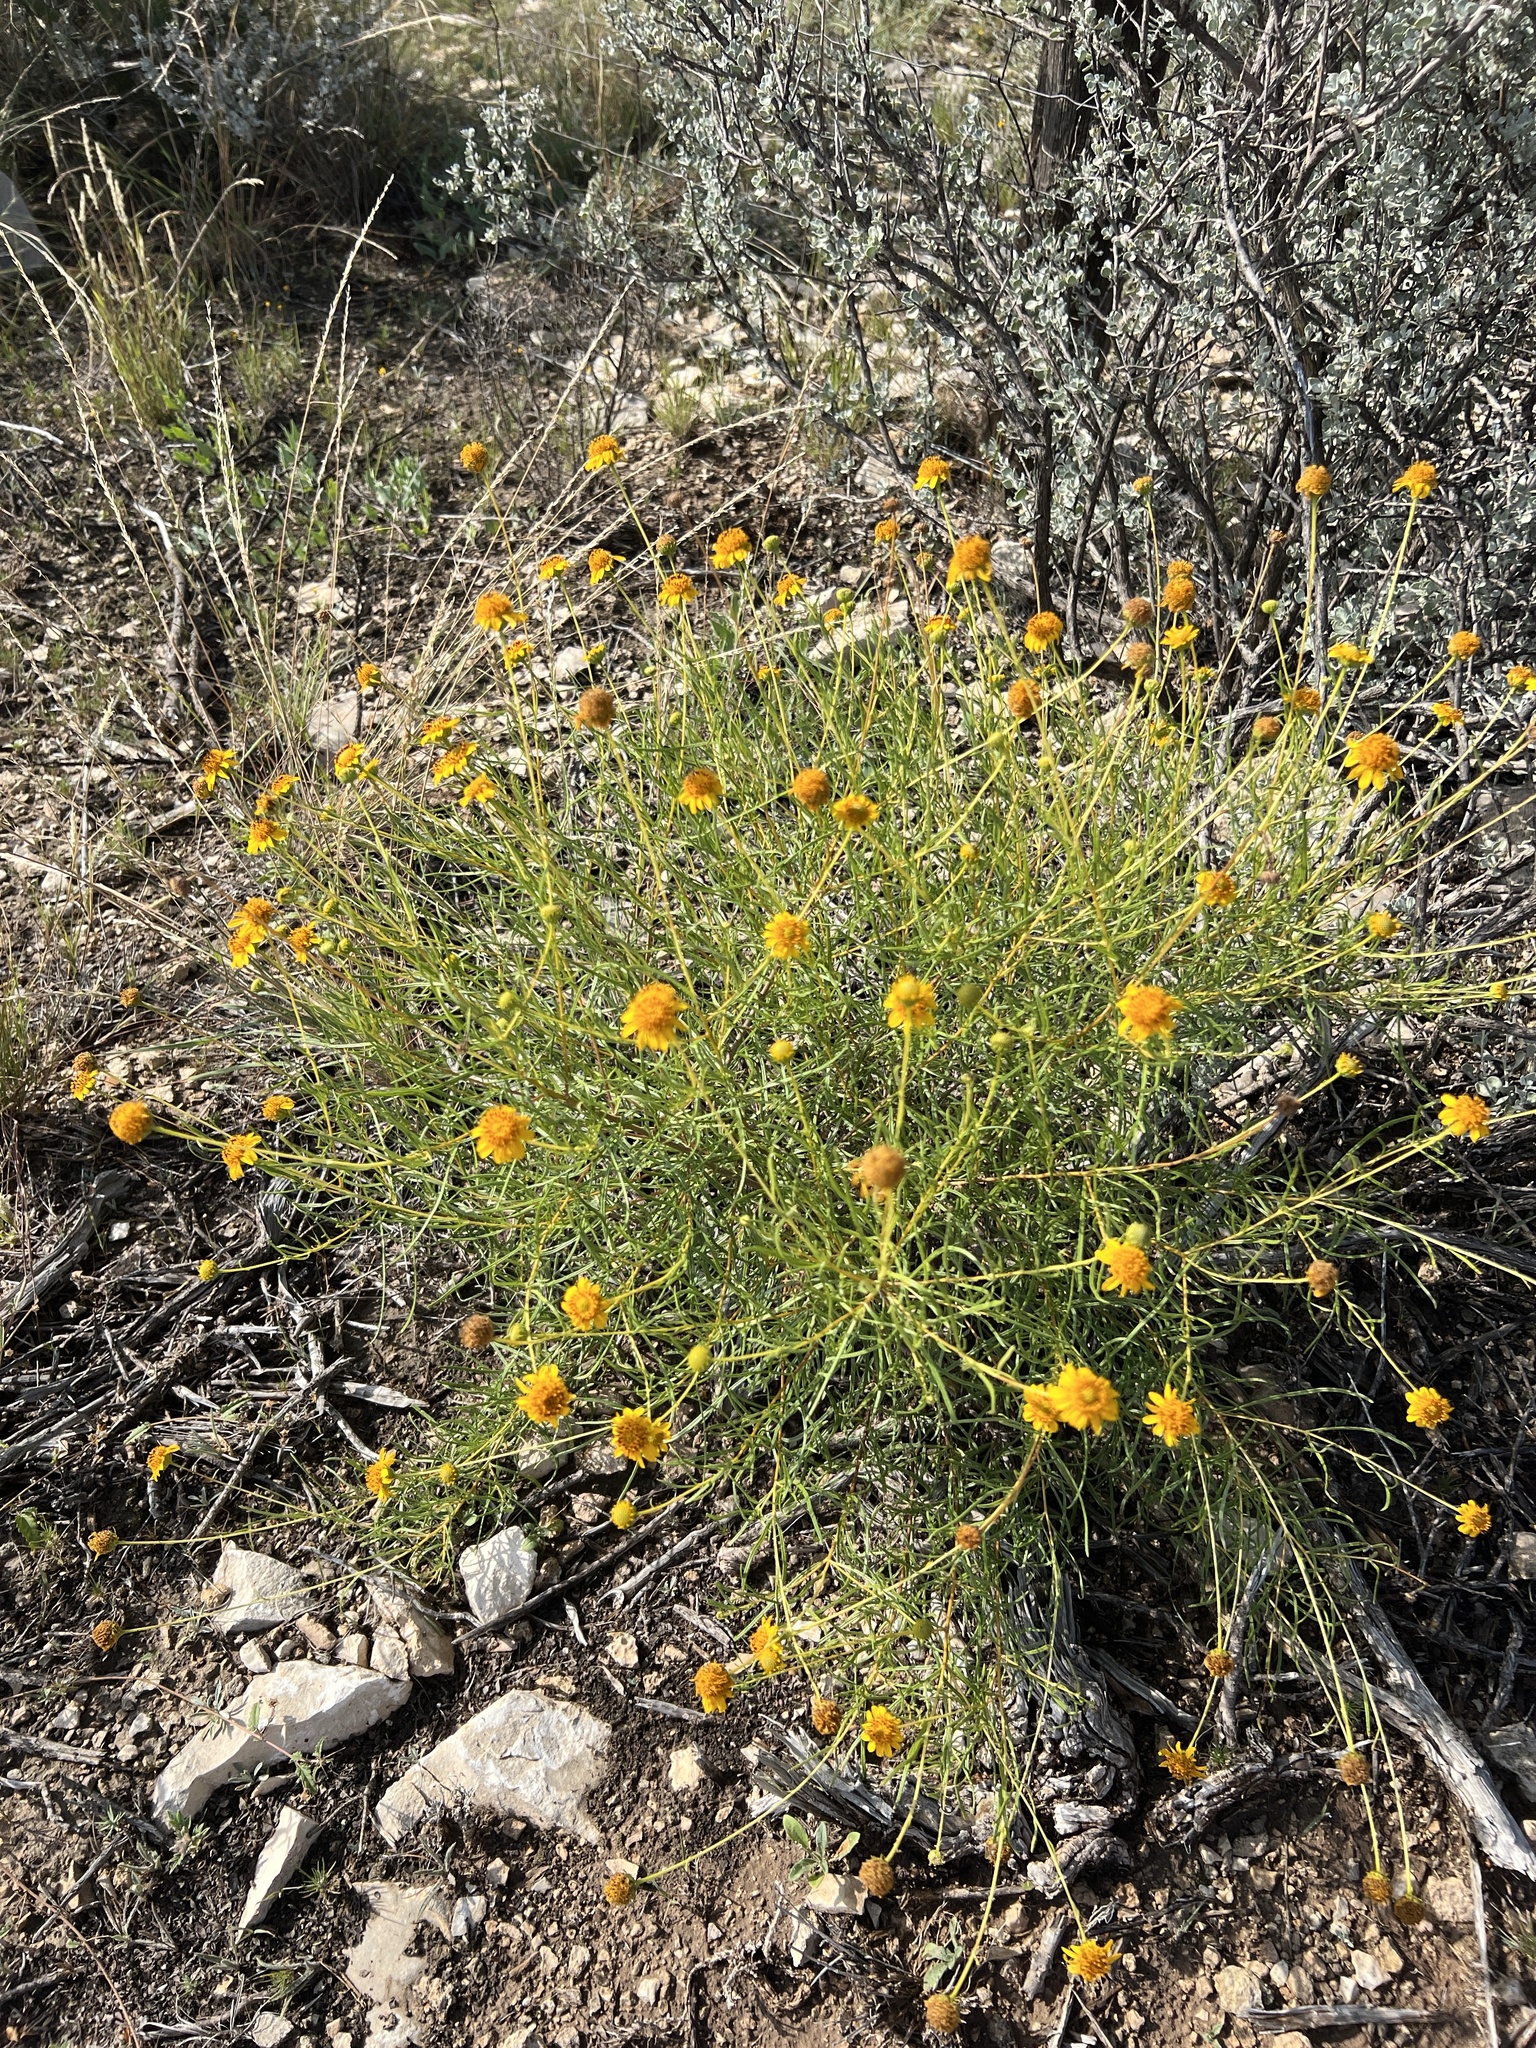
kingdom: Plantae
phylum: Tracheophyta
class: Magnoliopsida
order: Asterales
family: Asteraceae
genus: Sidneya
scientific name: Sidneya tenuifolia
